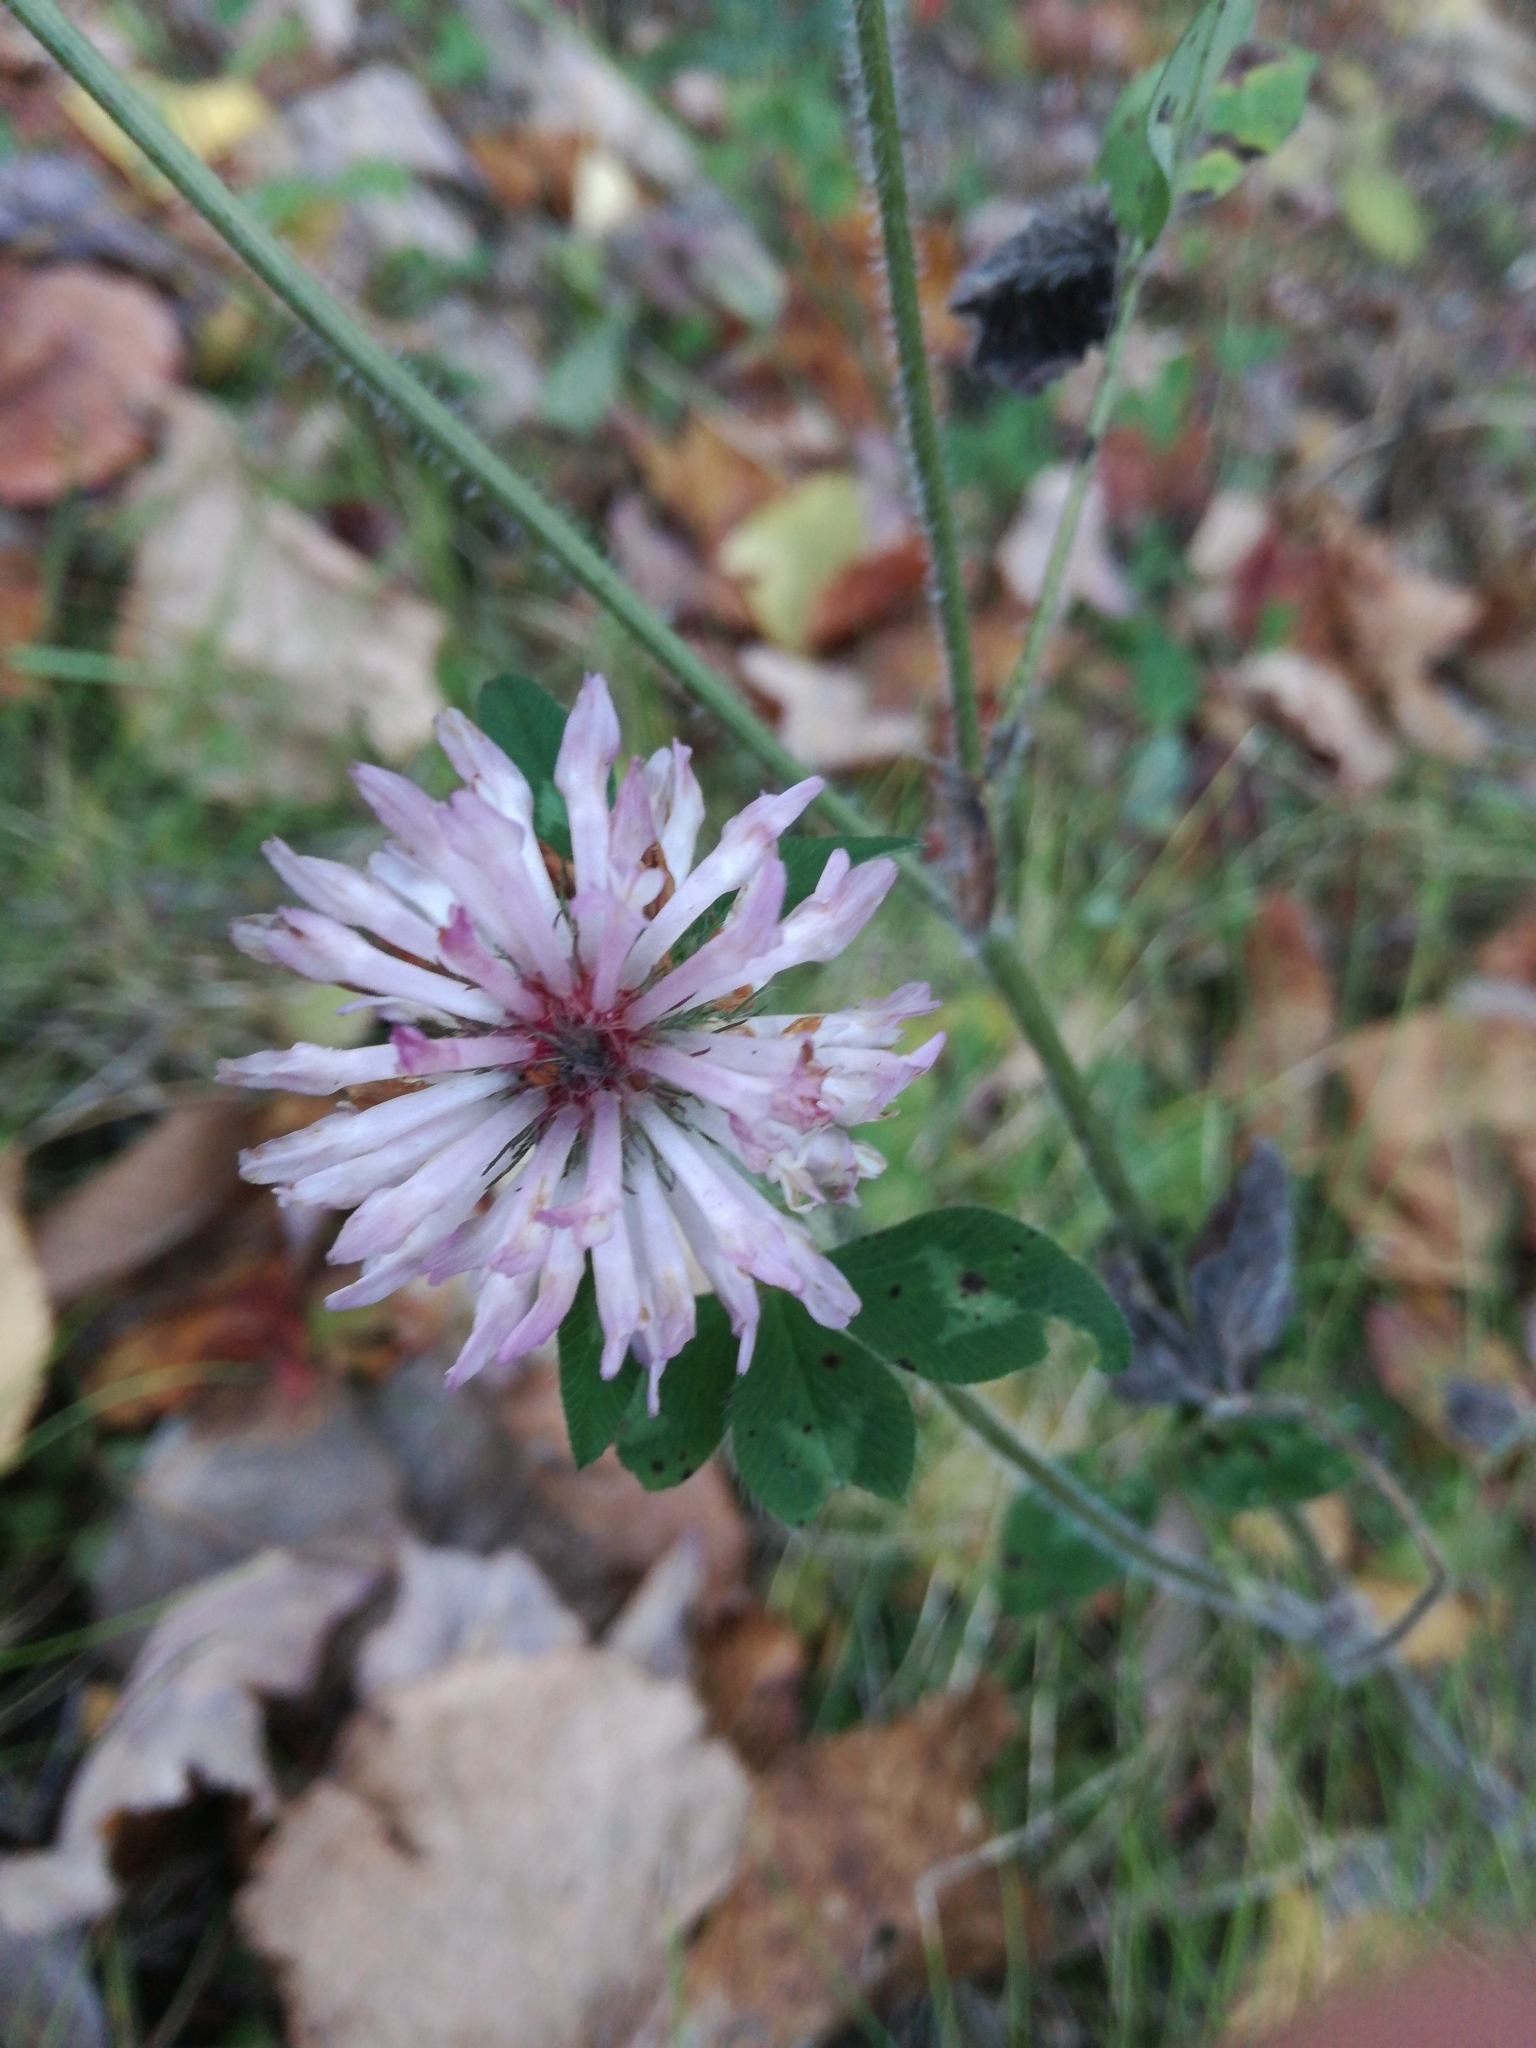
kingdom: Plantae
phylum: Tracheophyta
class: Magnoliopsida
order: Fabales
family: Fabaceae
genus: Trifolium
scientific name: Trifolium pratense
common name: Red clover
